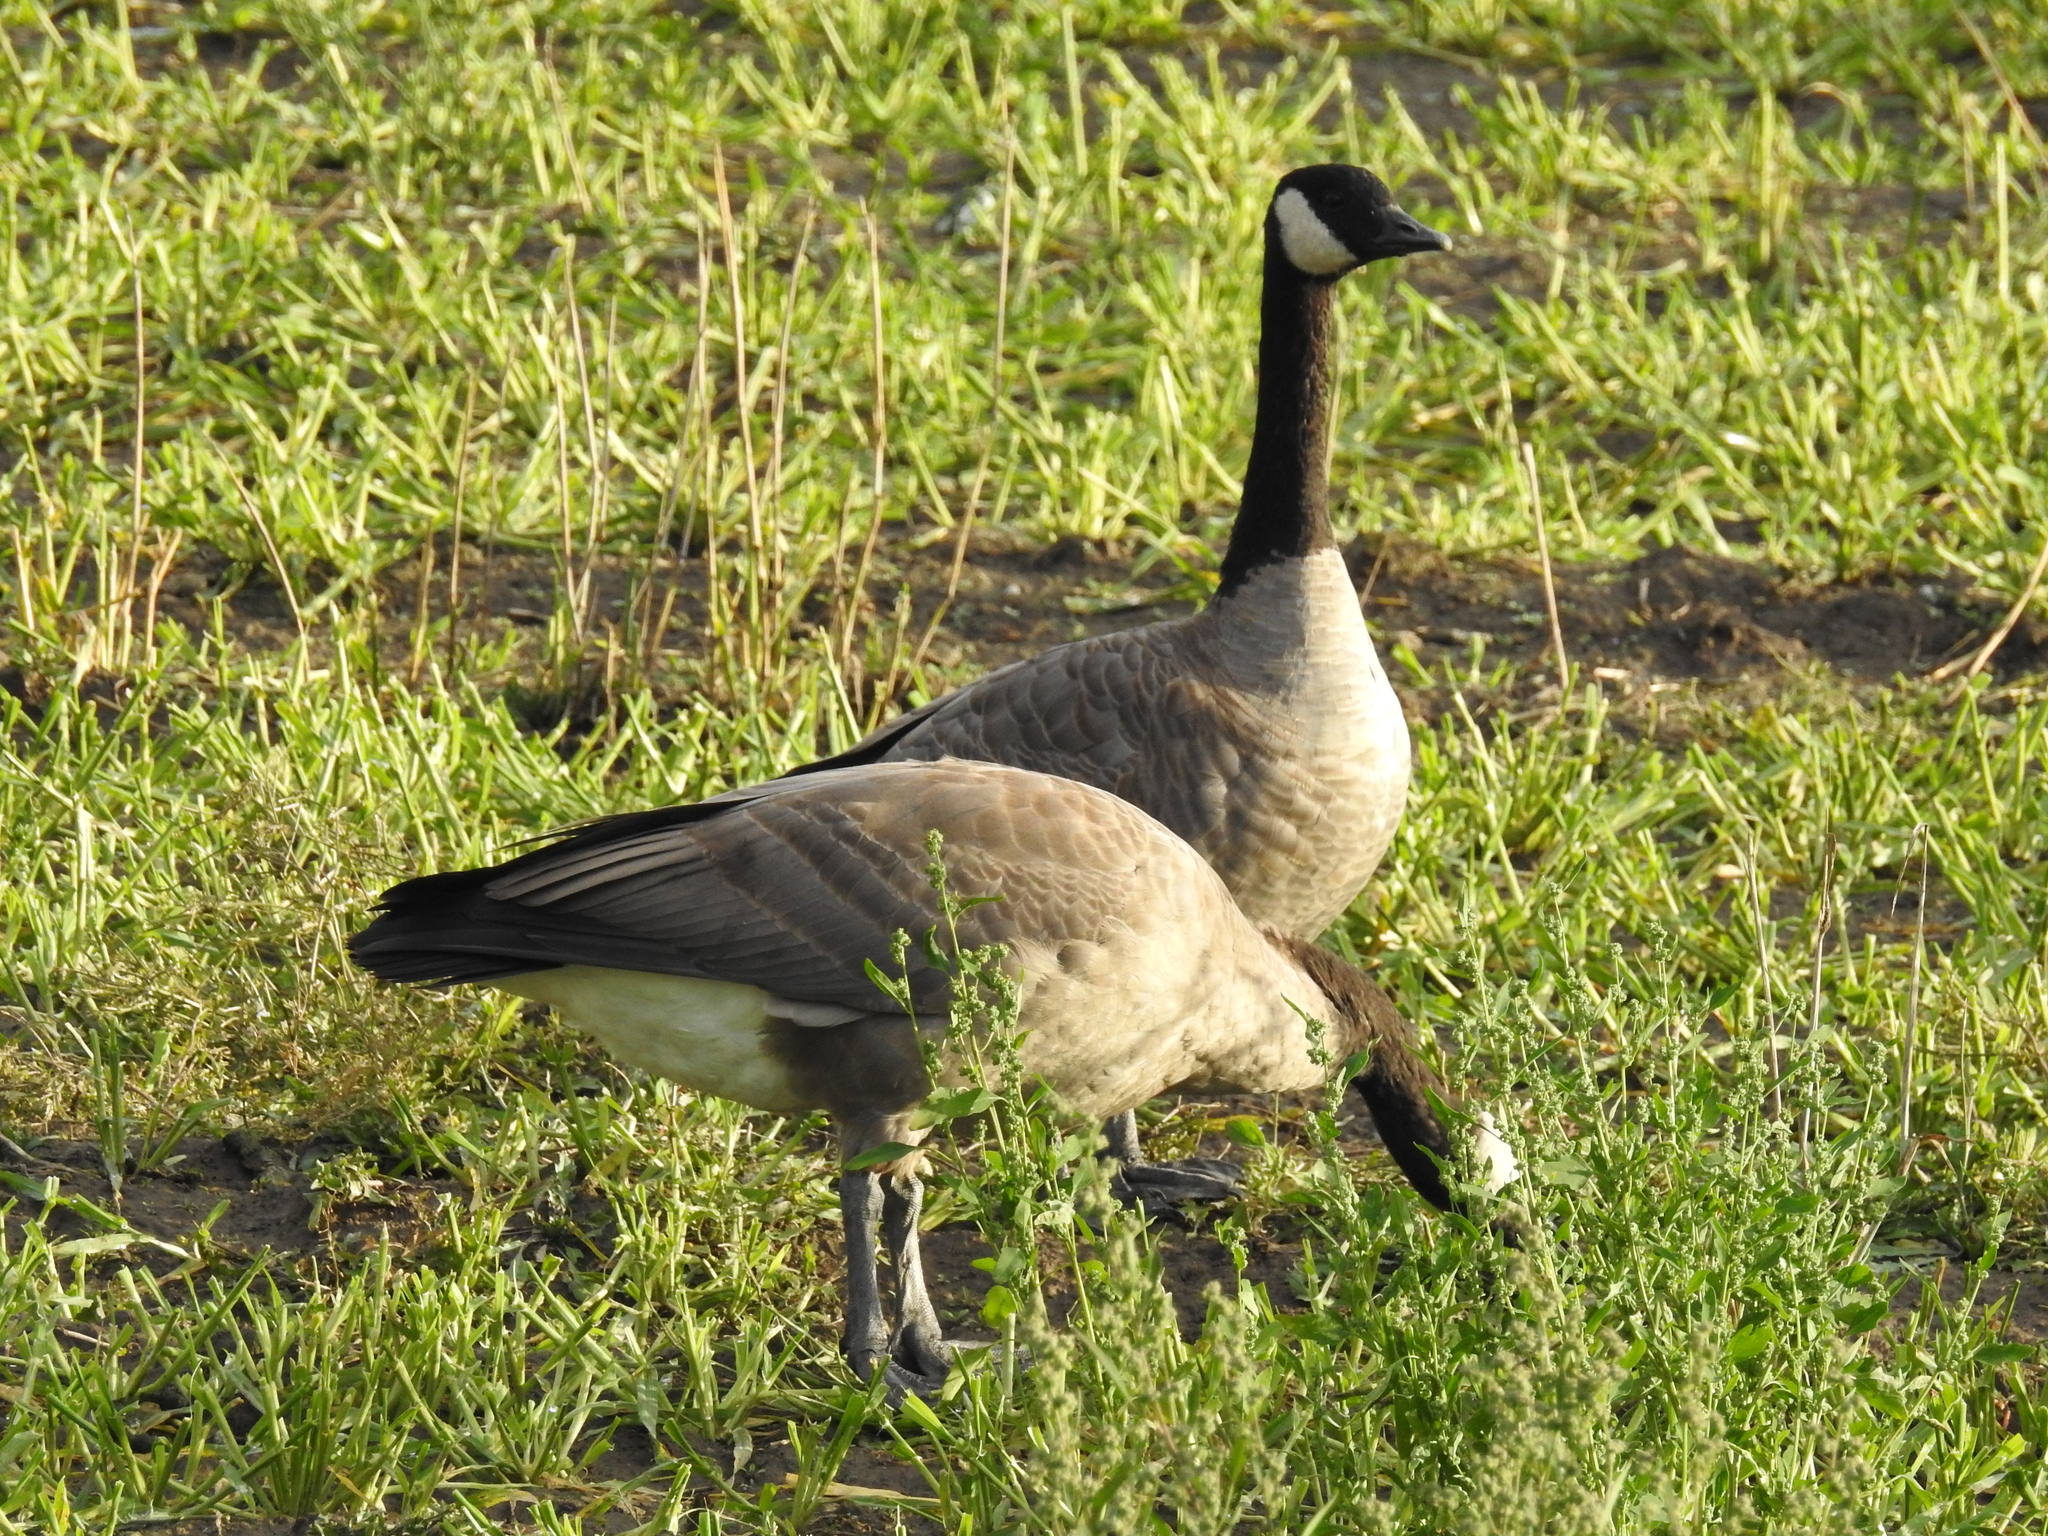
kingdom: Animalia
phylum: Chordata
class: Aves
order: Anseriformes
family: Anatidae
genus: Branta
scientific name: Branta canadensis
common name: Canada goose
